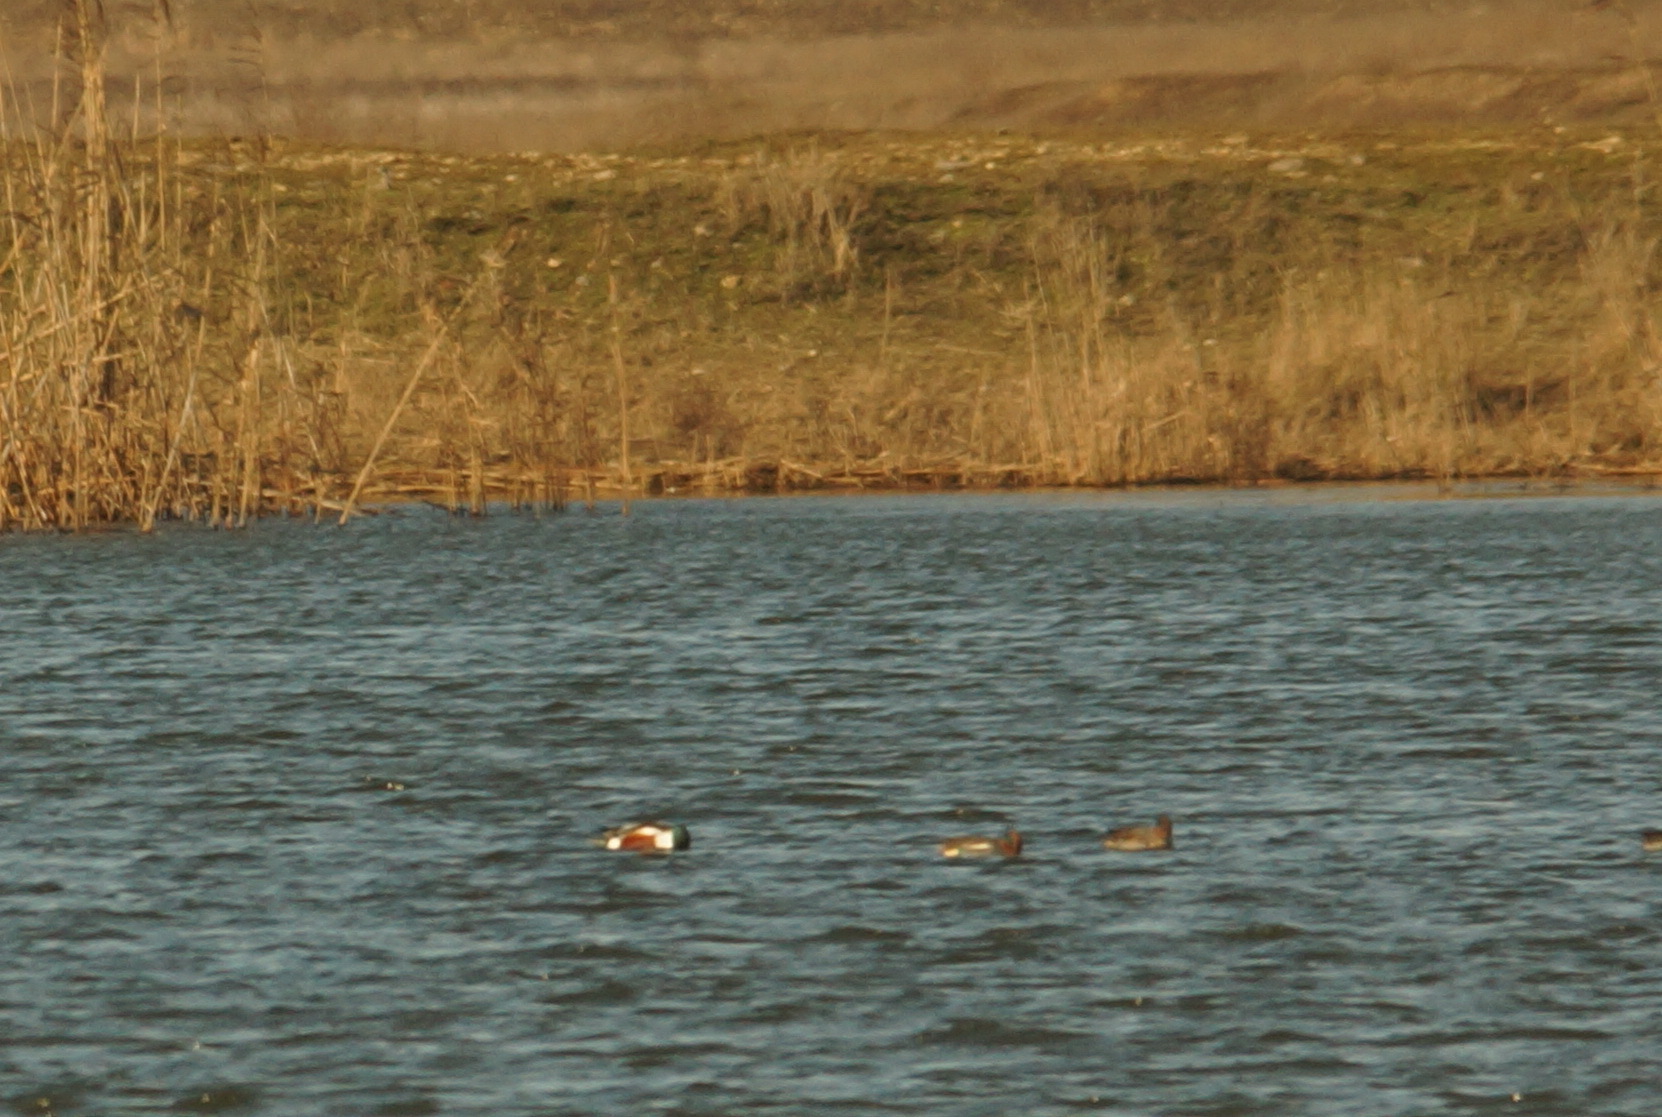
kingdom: Animalia
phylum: Chordata
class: Aves
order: Anseriformes
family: Anatidae
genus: Anas
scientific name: Anas crecca
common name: Eurasian teal
